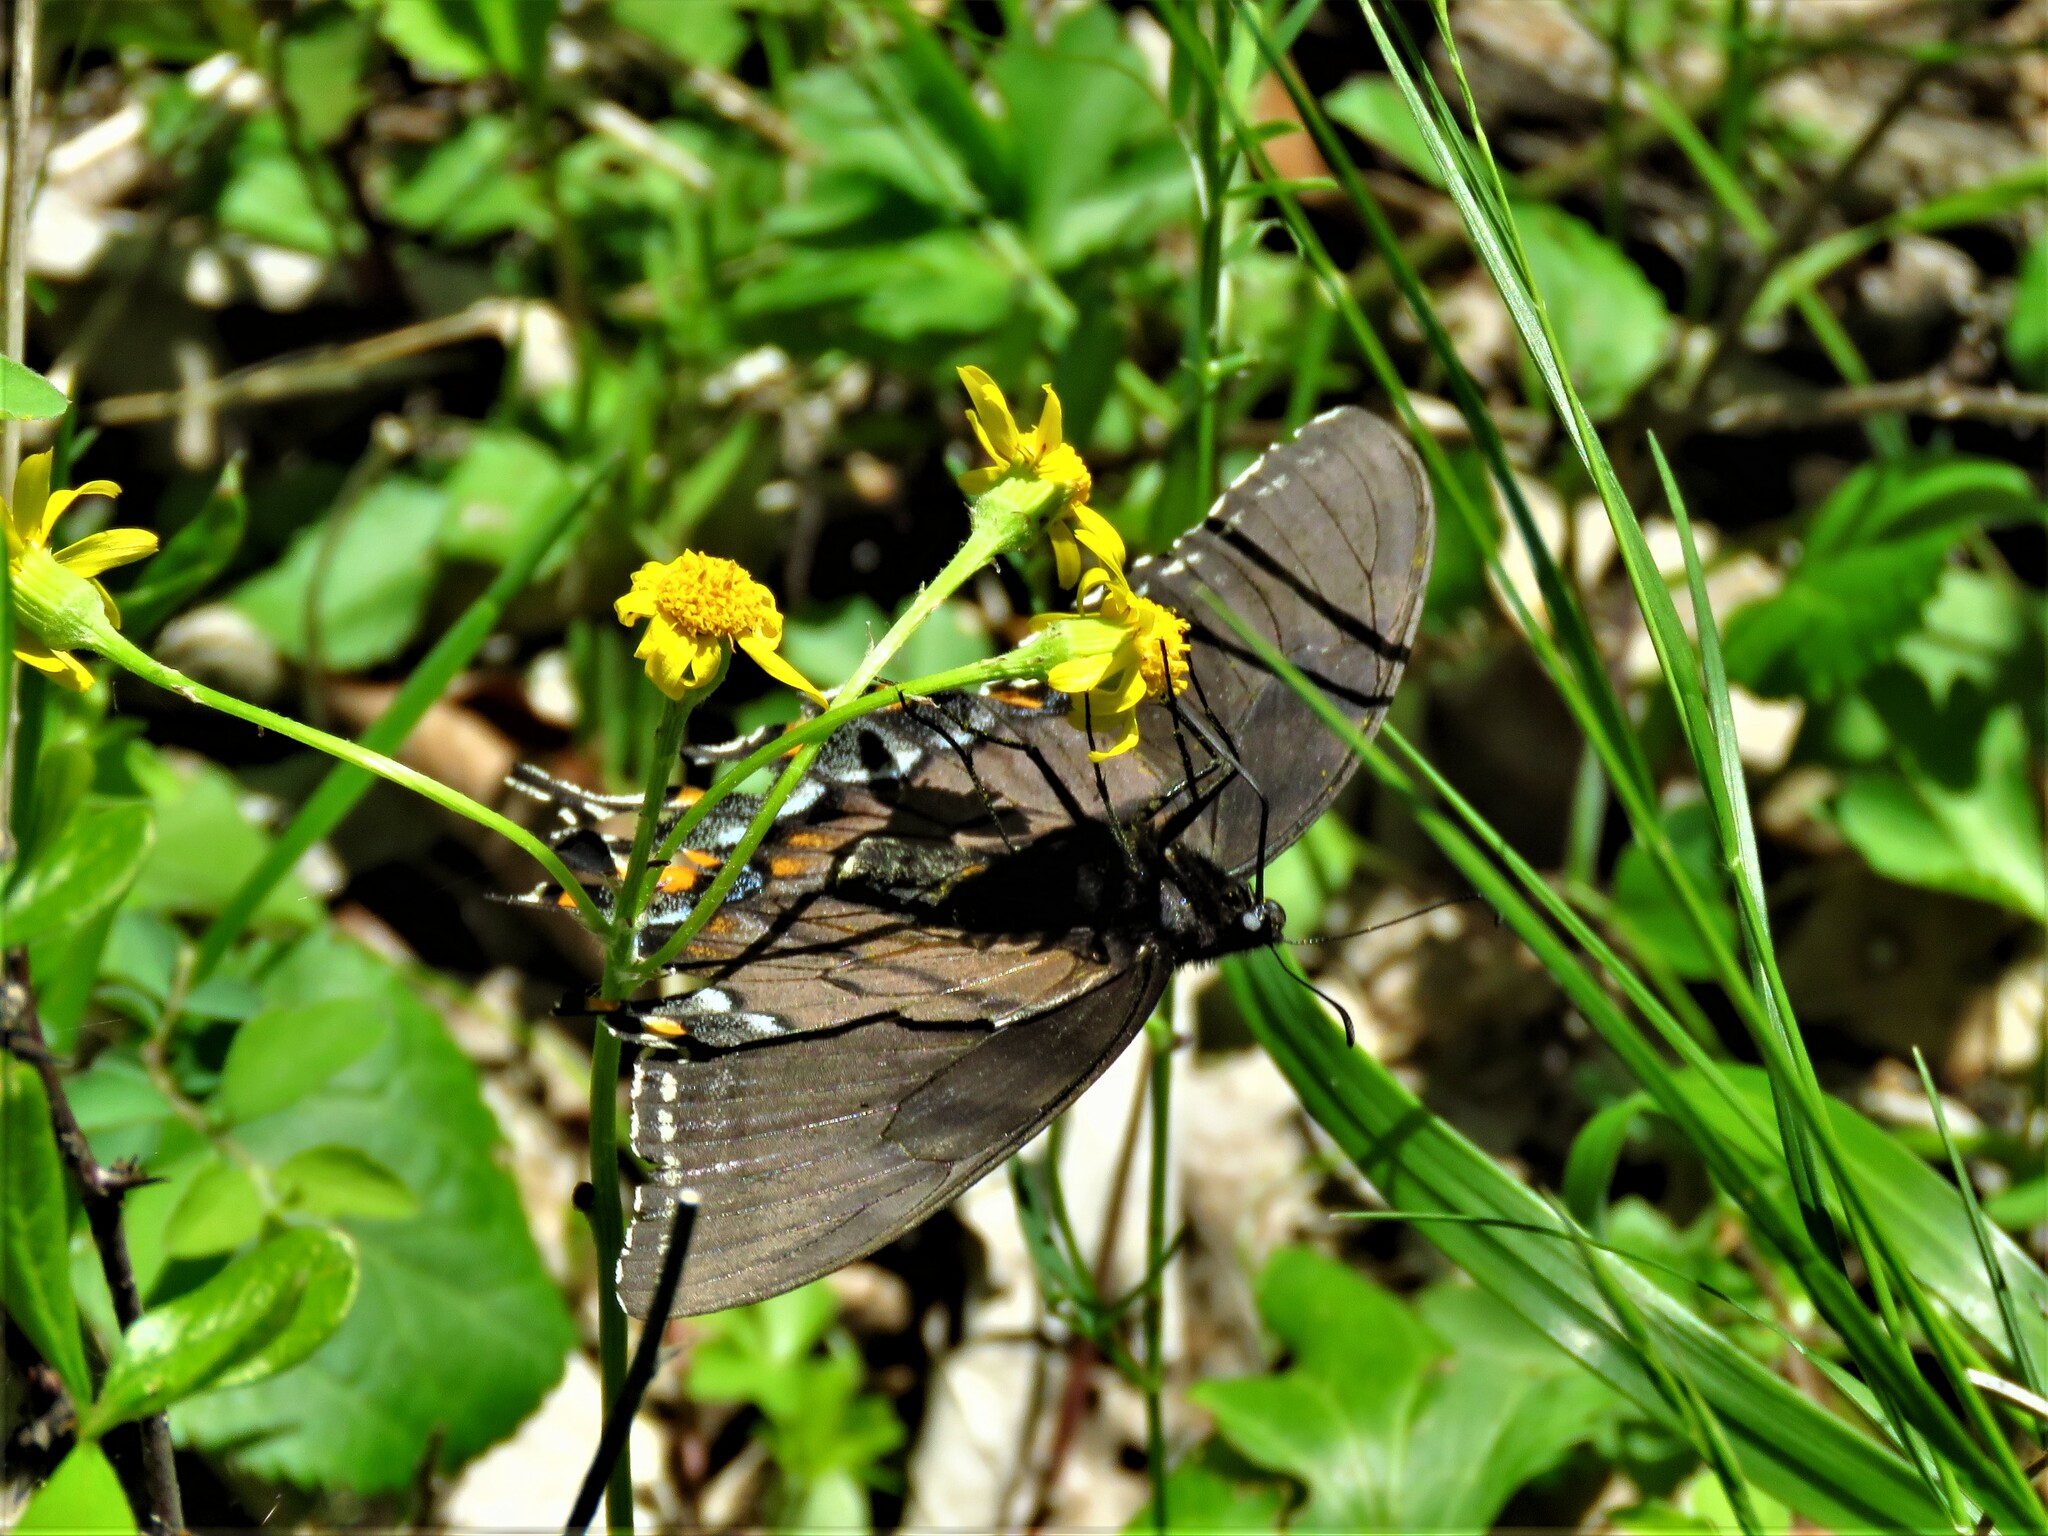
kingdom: Animalia
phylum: Arthropoda
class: Insecta
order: Lepidoptera
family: Papilionidae
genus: Papilio
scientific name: Papilio glaucus
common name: Tiger swallowtail
